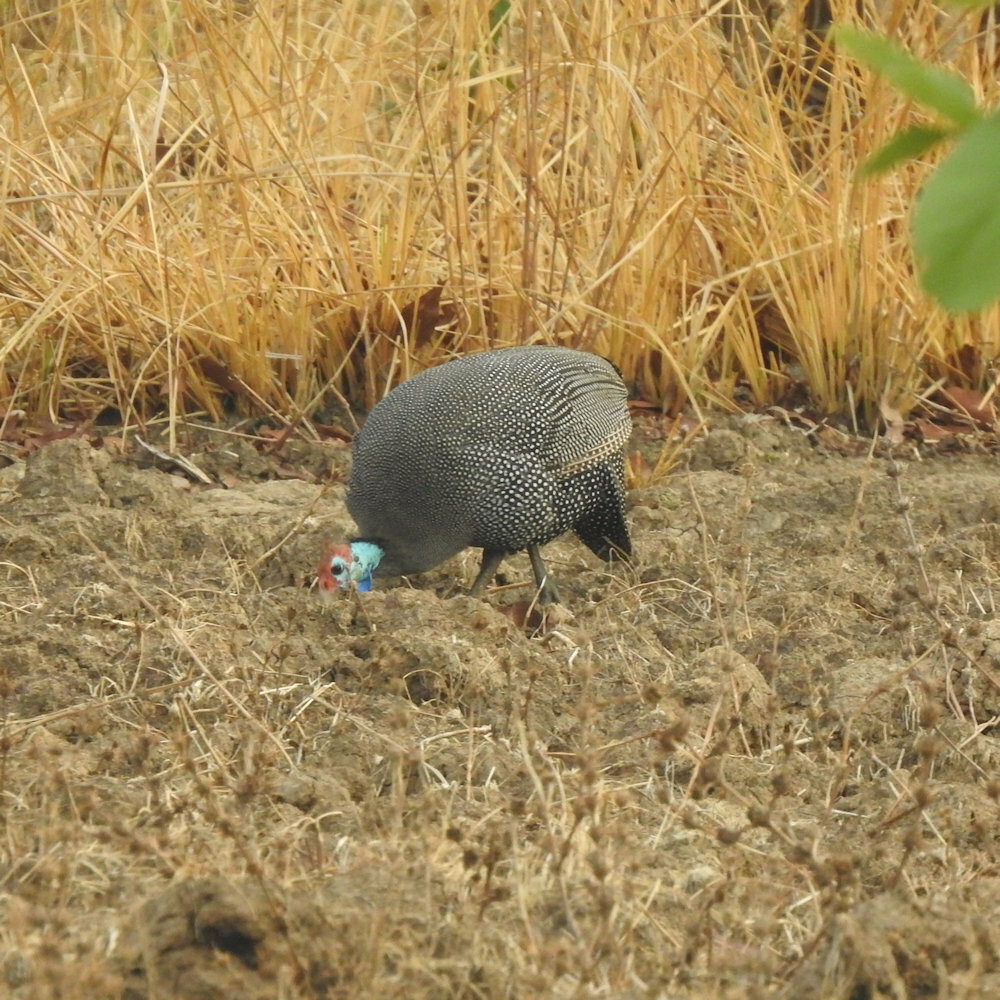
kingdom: Animalia
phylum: Chordata
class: Aves
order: Galliformes
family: Numididae
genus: Numida
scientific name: Numida meleagris
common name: Helmeted guineafowl
